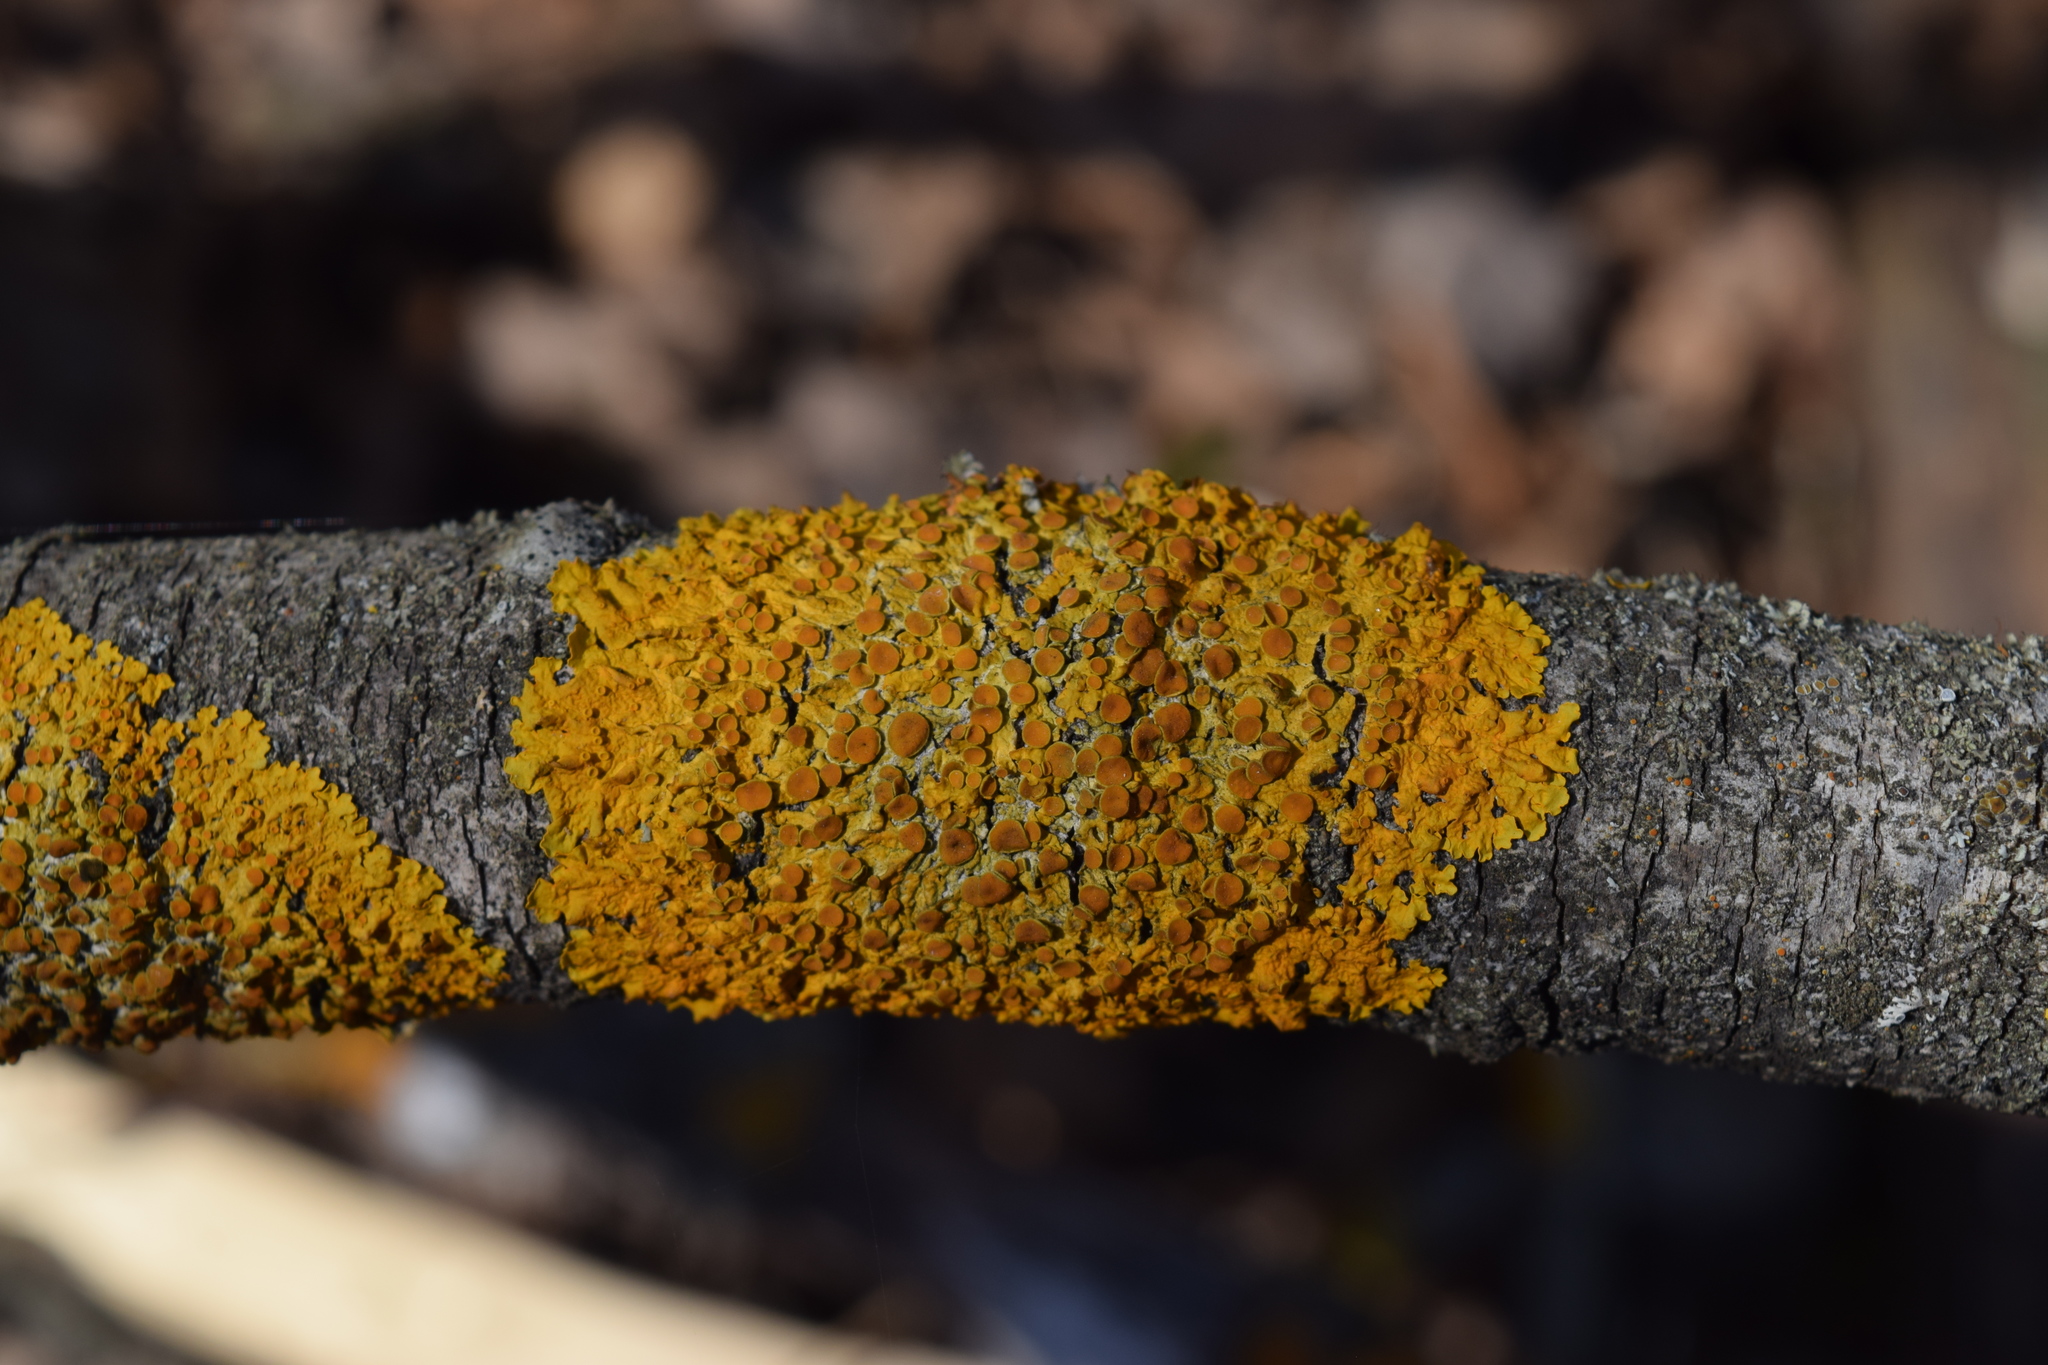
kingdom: Fungi
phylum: Ascomycota
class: Lecanoromycetes
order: Teloschistales
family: Teloschistaceae
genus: Xanthoria
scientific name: Xanthoria parietina
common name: Common orange lichen
